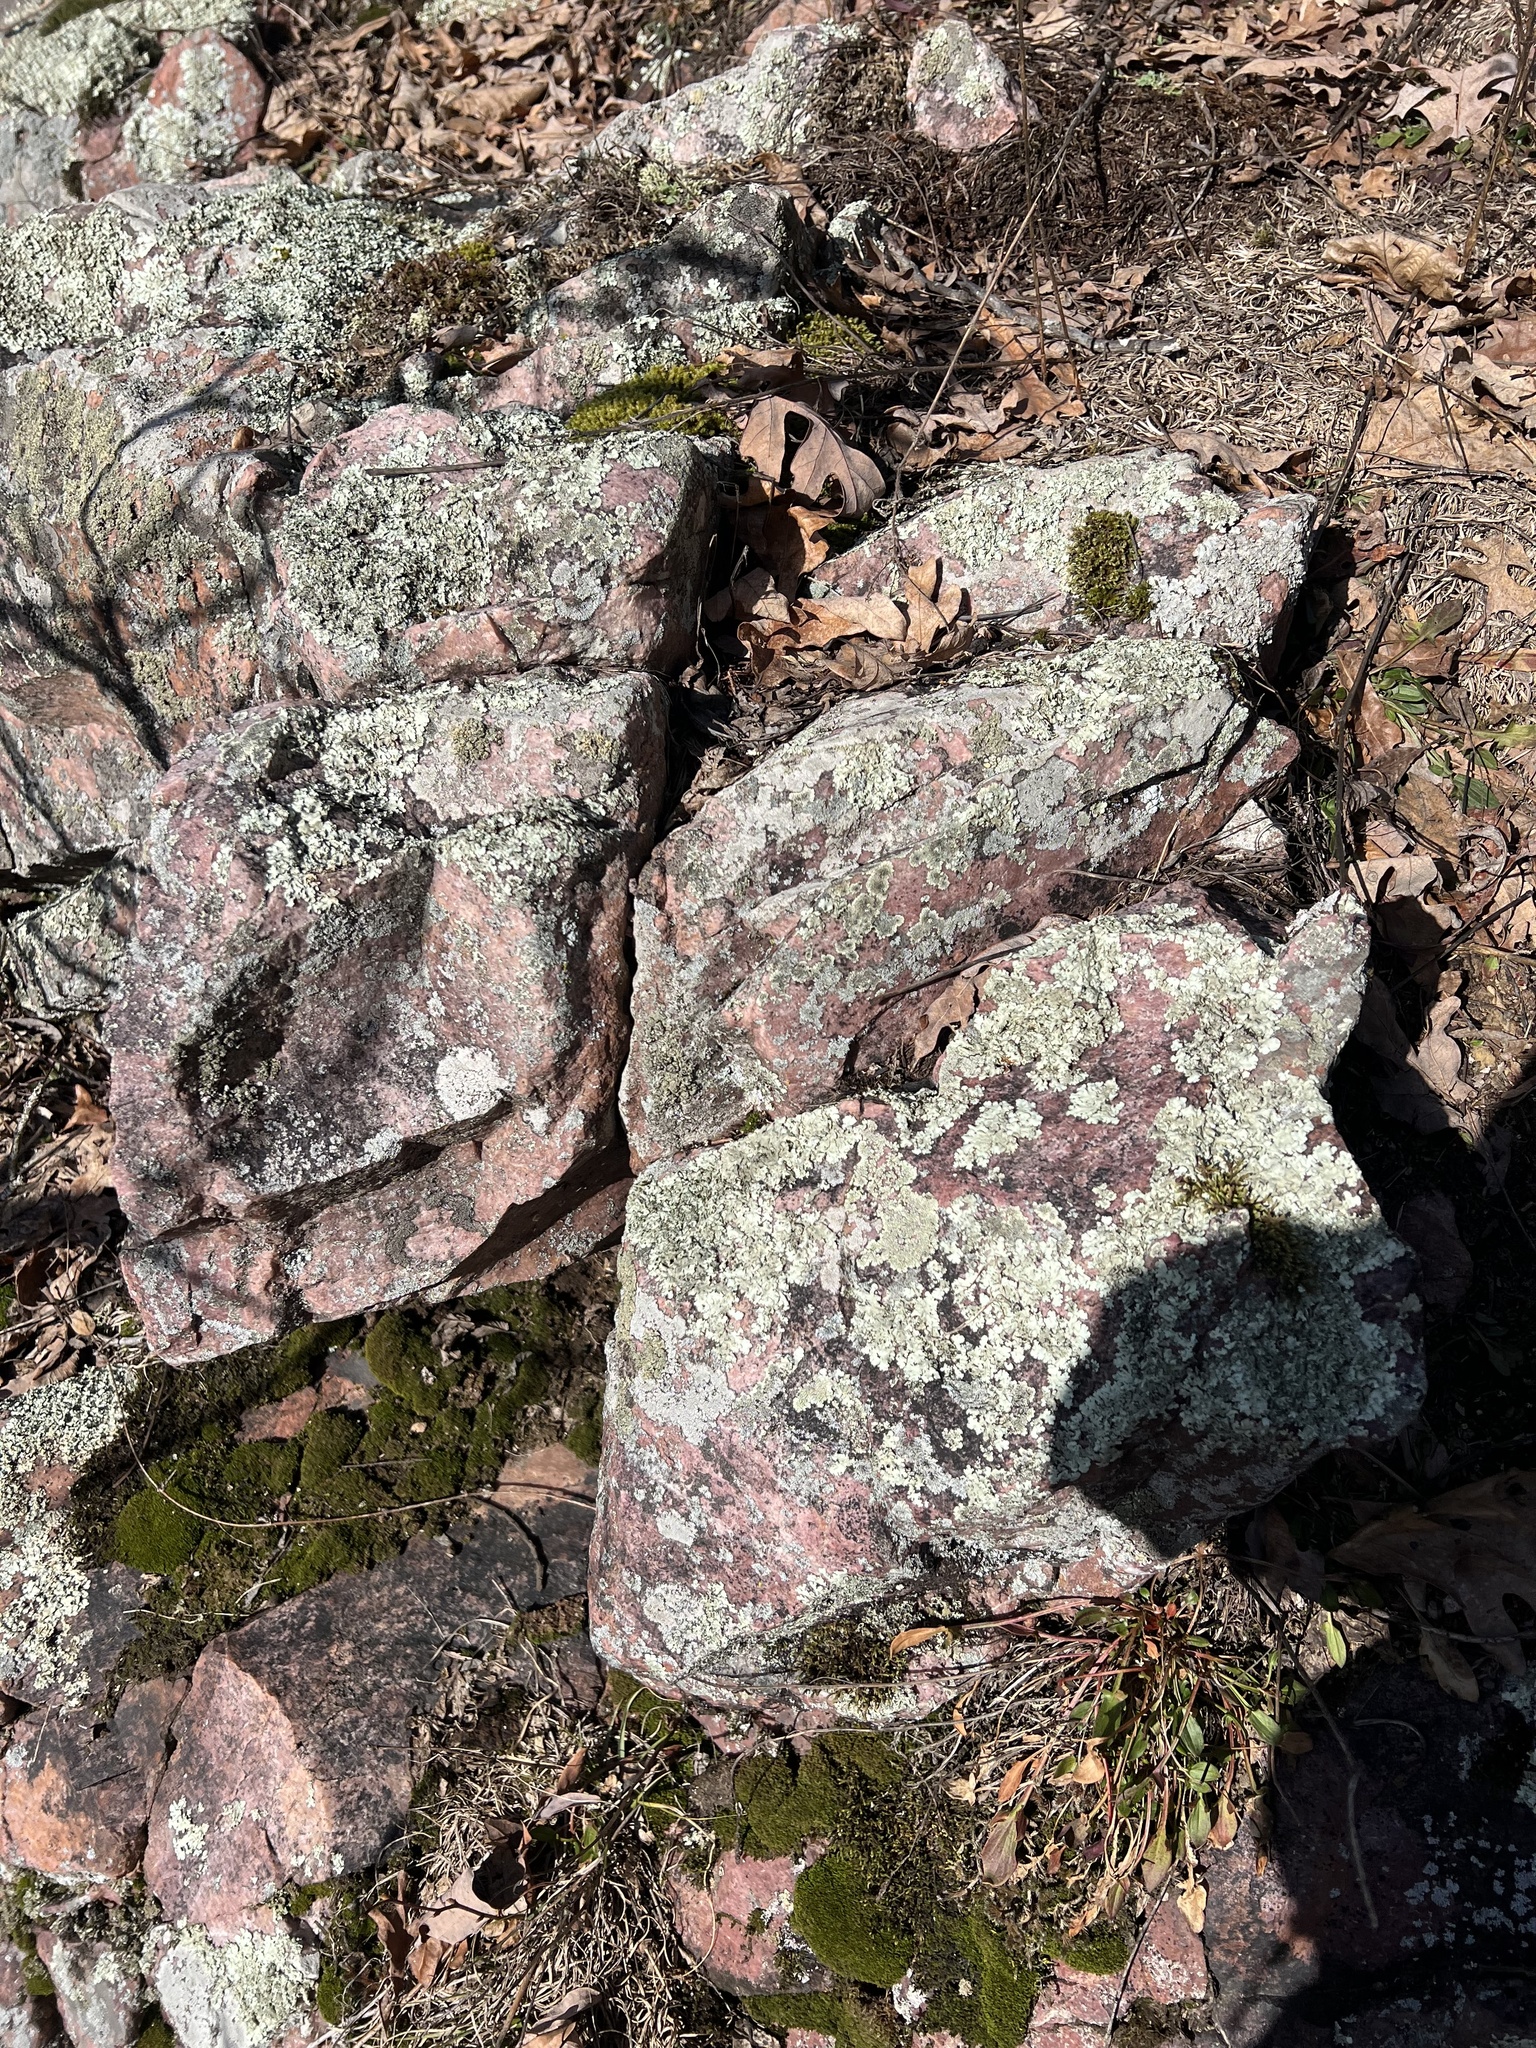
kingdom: Fungi
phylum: Ascomycota
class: Lecanoromycetes
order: Caliciales
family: Caliciaceae
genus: Dimelaena
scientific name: Dimelaena oreina
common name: Golden moonglow lichen
